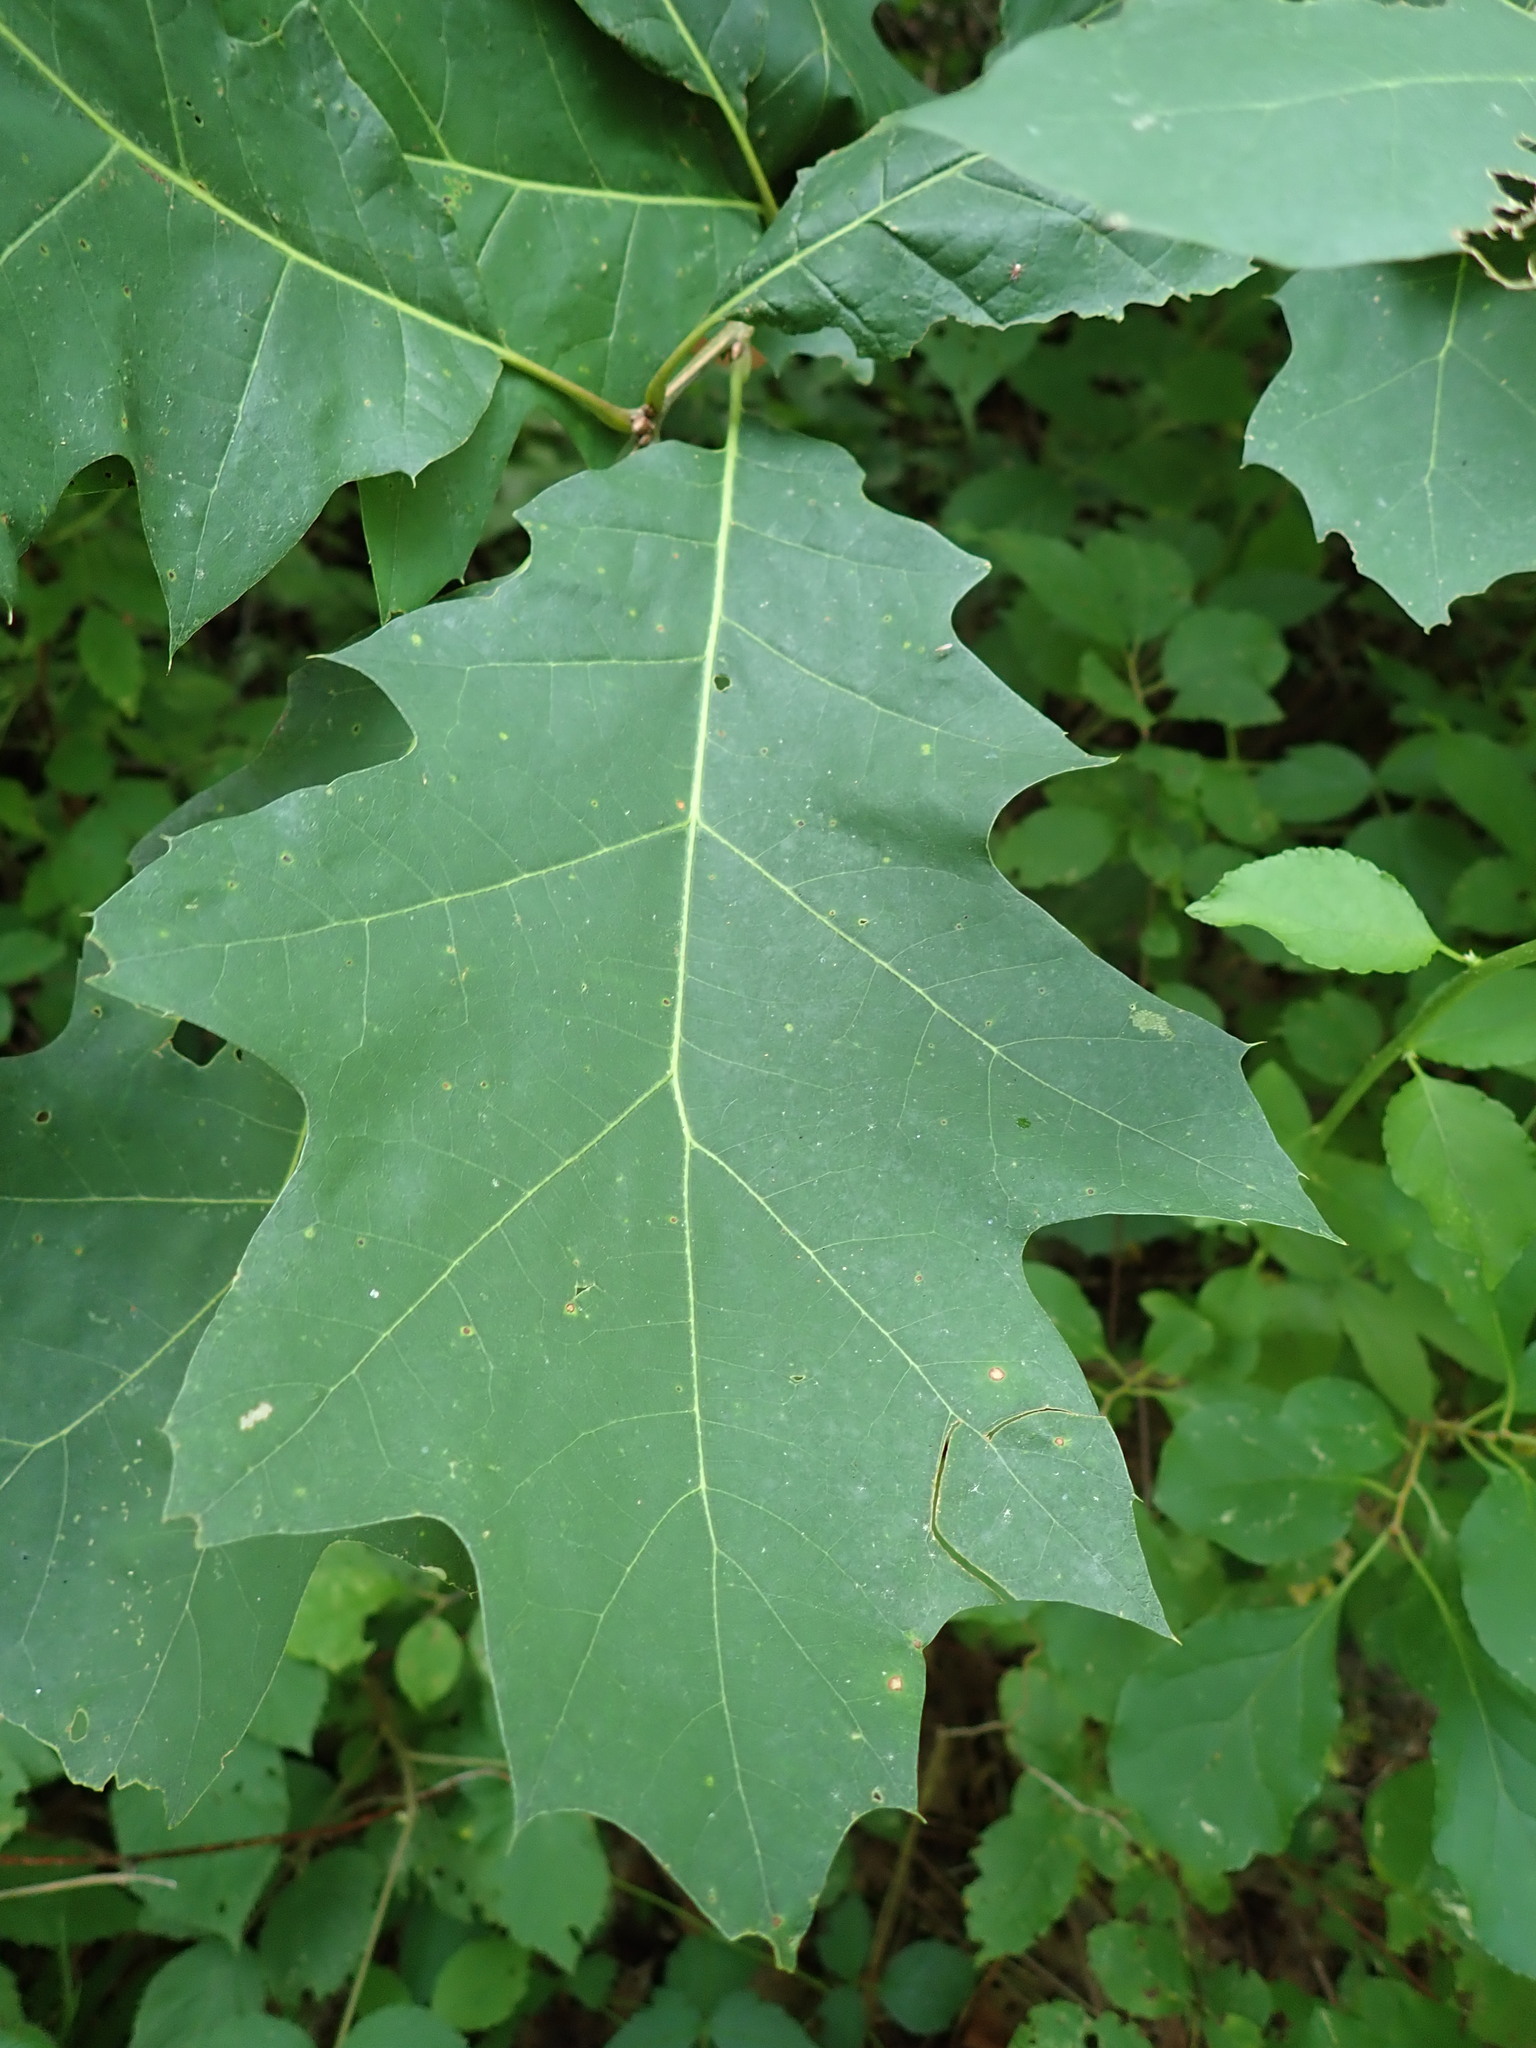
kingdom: Plantae
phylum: Tracheophyta
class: Magnoliopsida
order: Fagales
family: Fagaceae
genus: Quercus
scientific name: Quercus rubra
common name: Red oak
